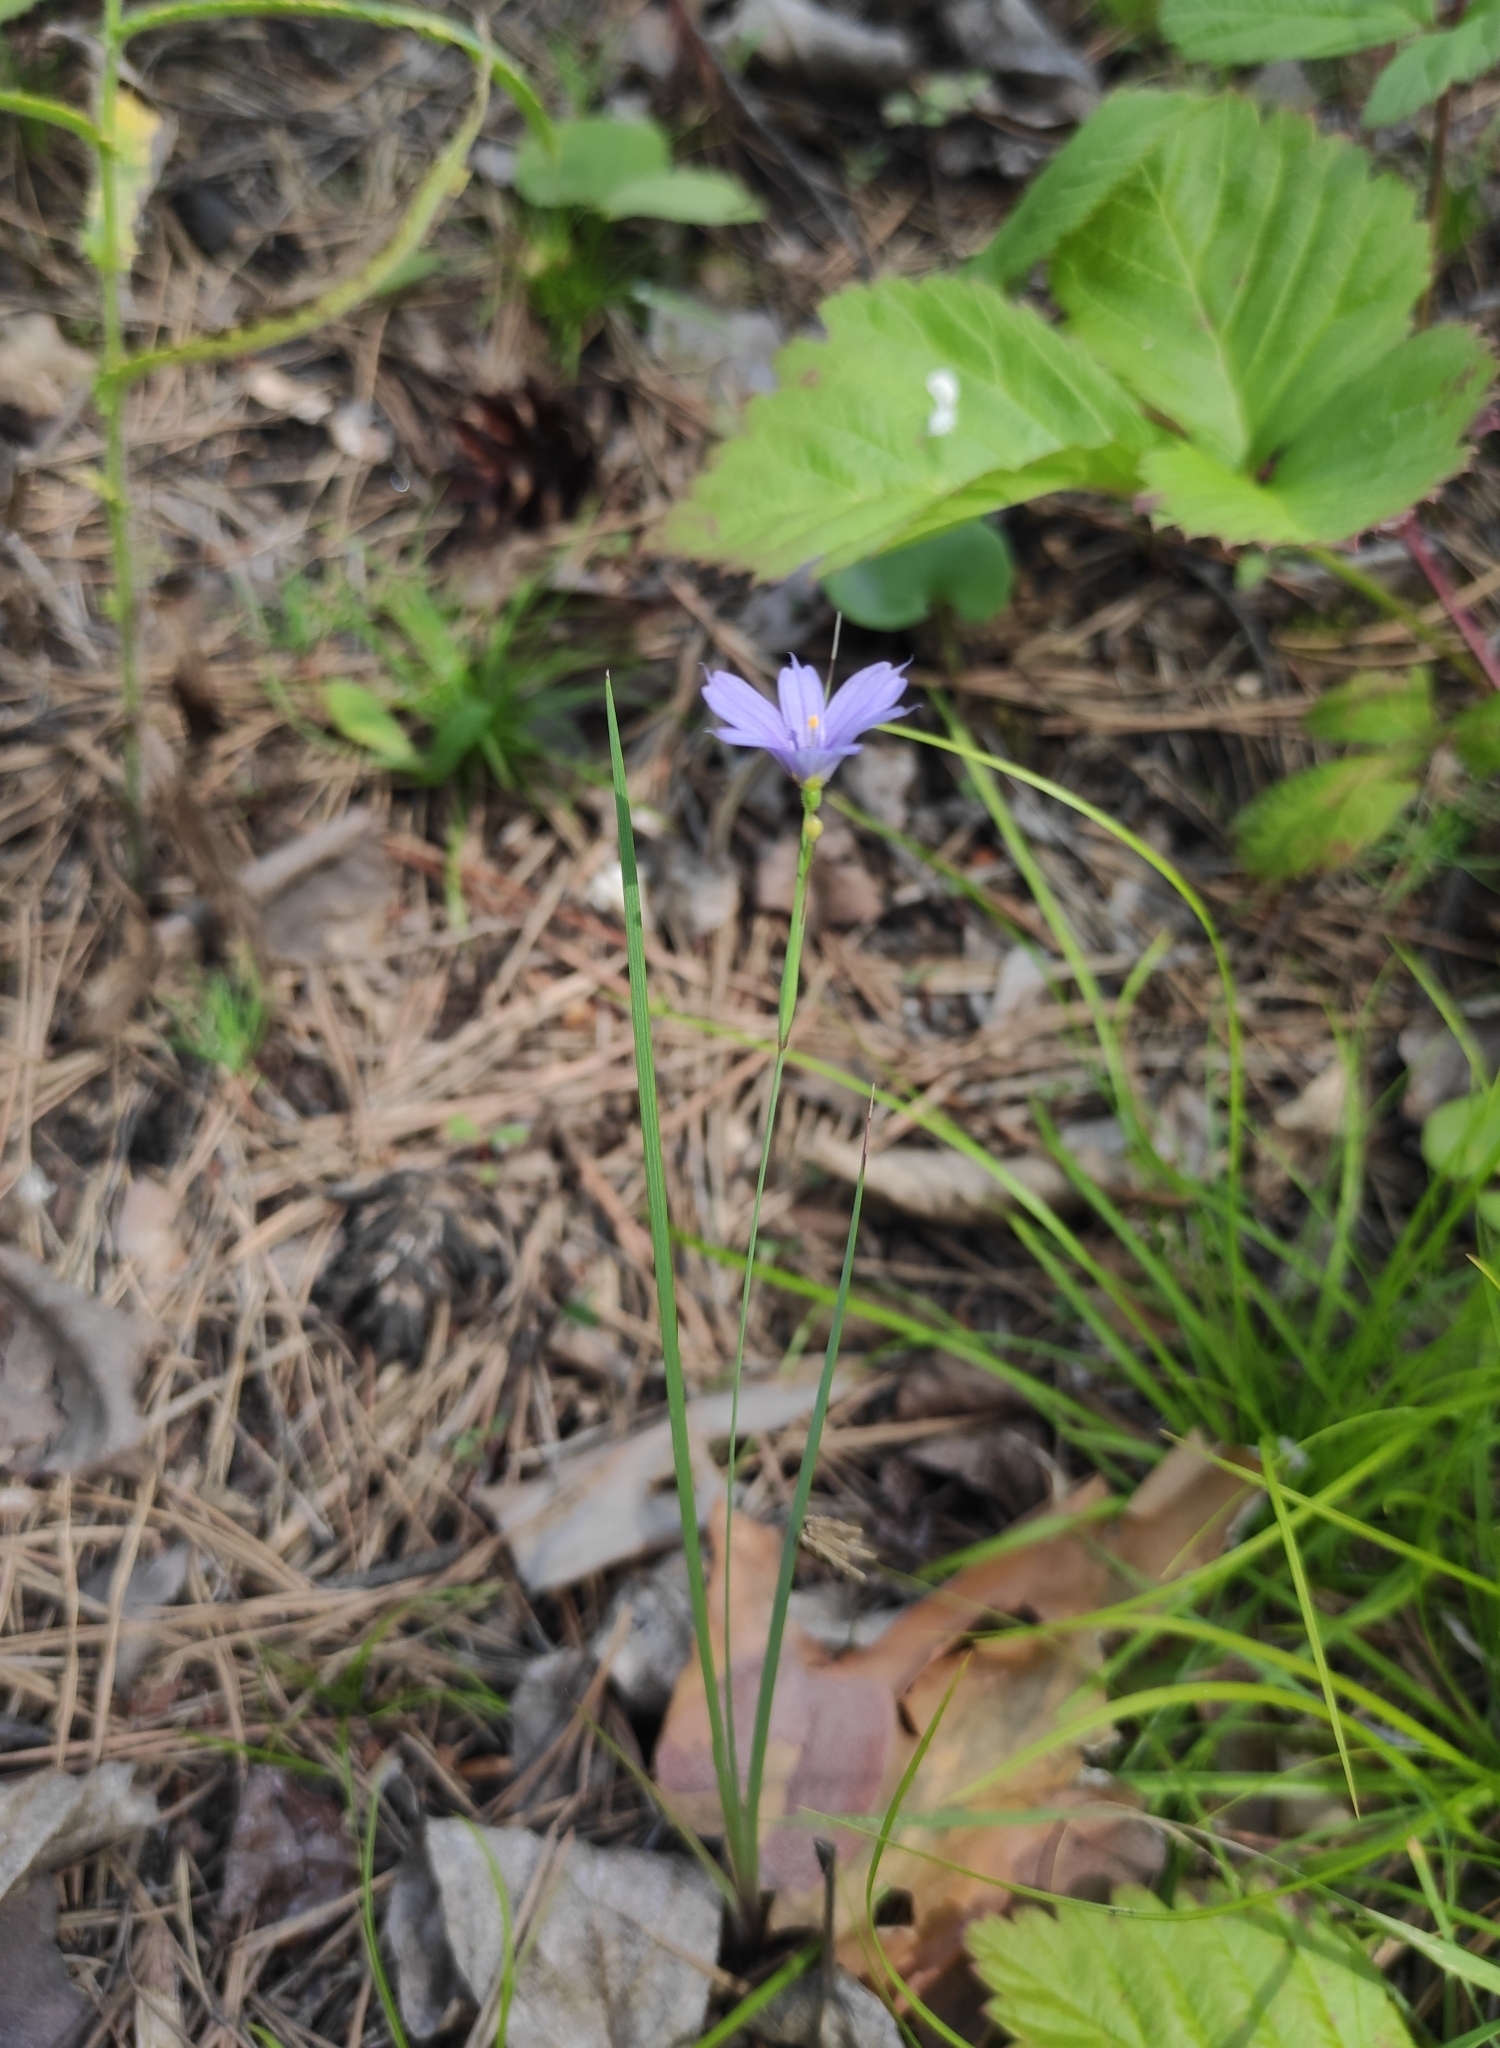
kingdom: Plantae
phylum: Tracheophyta
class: Liliopsida
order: Asparagales
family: Iridaceae
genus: Sisyrinchium
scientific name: Sisyrinchium montanum
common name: American blue-eyed-grass
